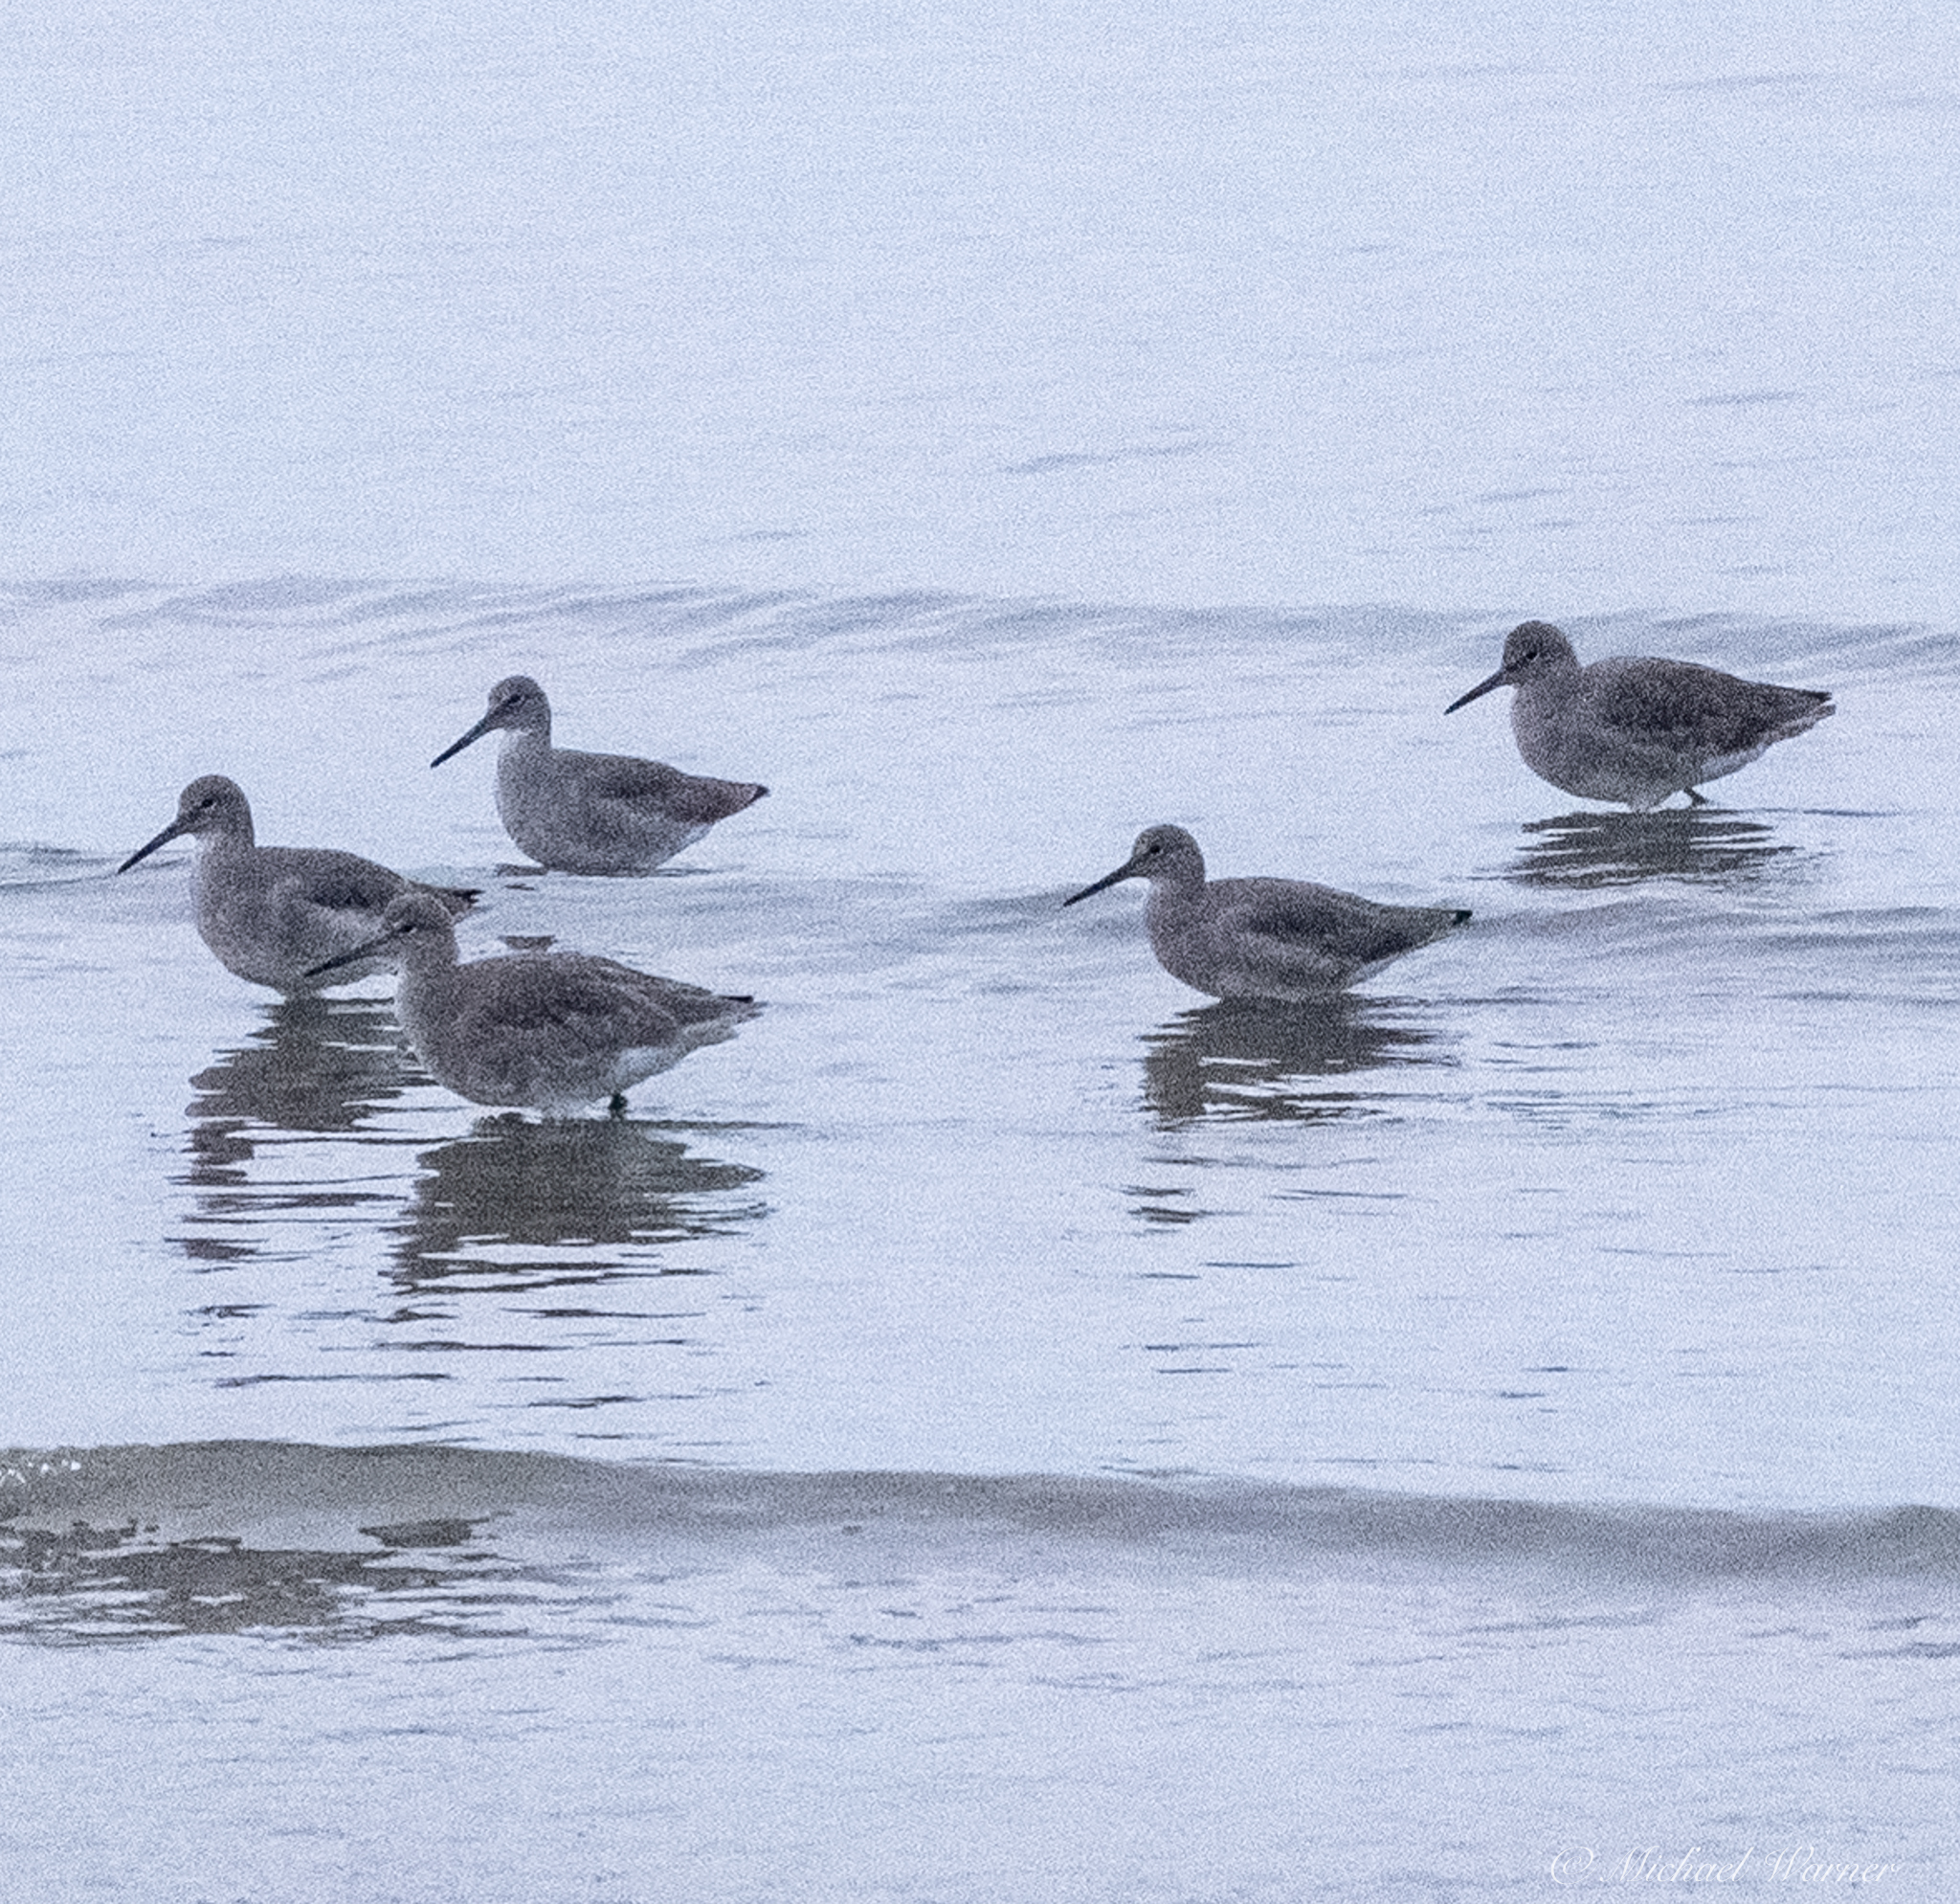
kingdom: Animalia
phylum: Chordata
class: Aves
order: Charadriiformes
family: Scolopacidae
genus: Tringa
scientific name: Tringa semipalmata
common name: Willet
